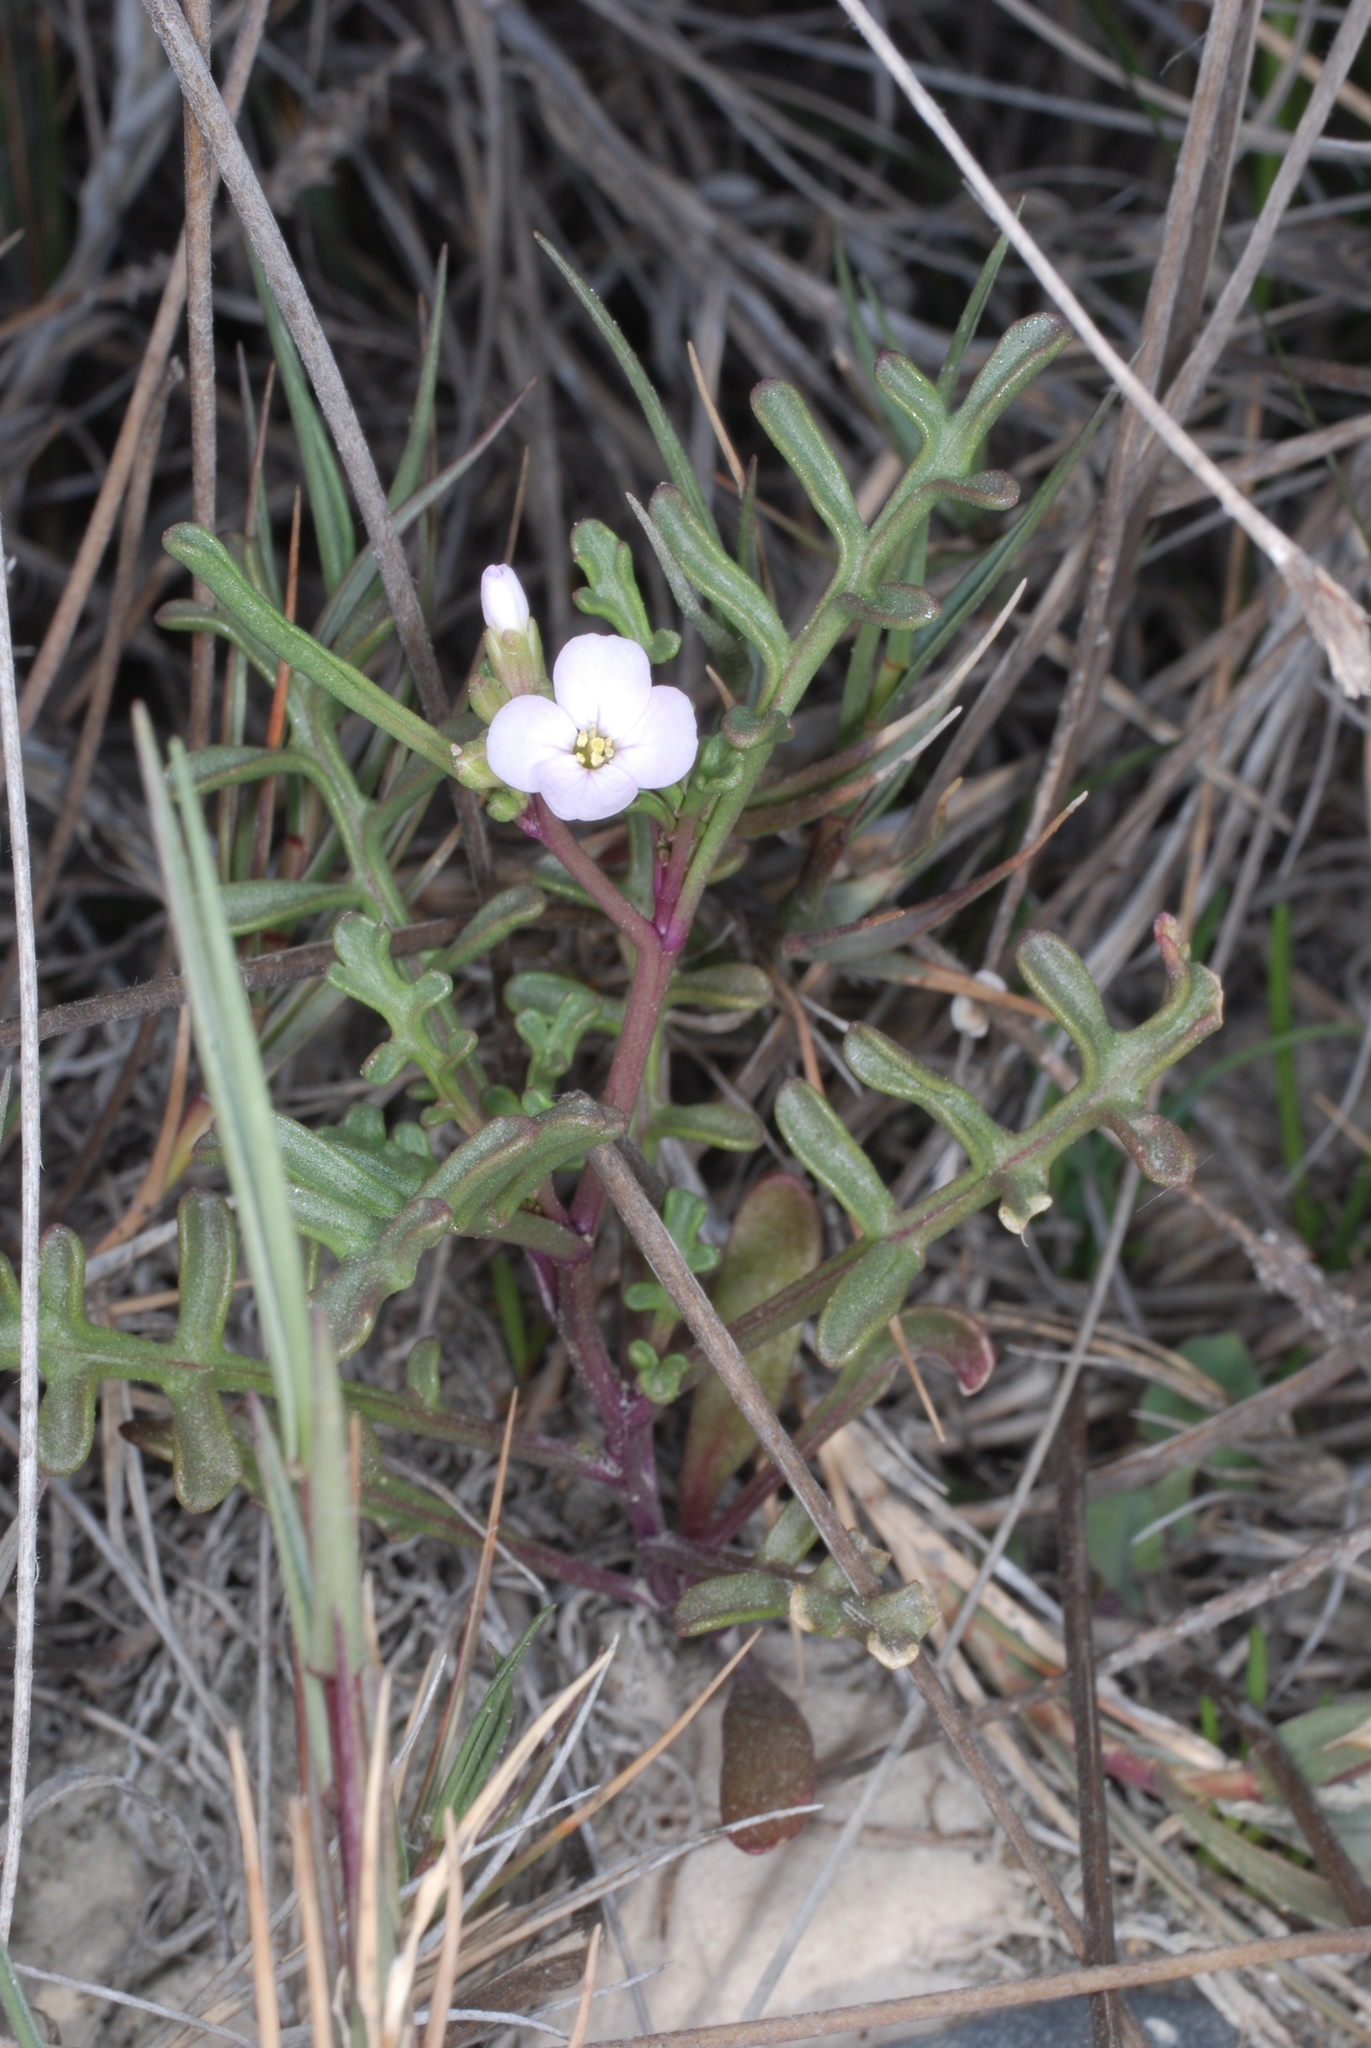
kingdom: Plantae
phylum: Tracheophyta
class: Magnoliopsida
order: Brassicales
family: Brassicaceae
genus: Cakile
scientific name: Cakile maritima
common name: Sea rocket
